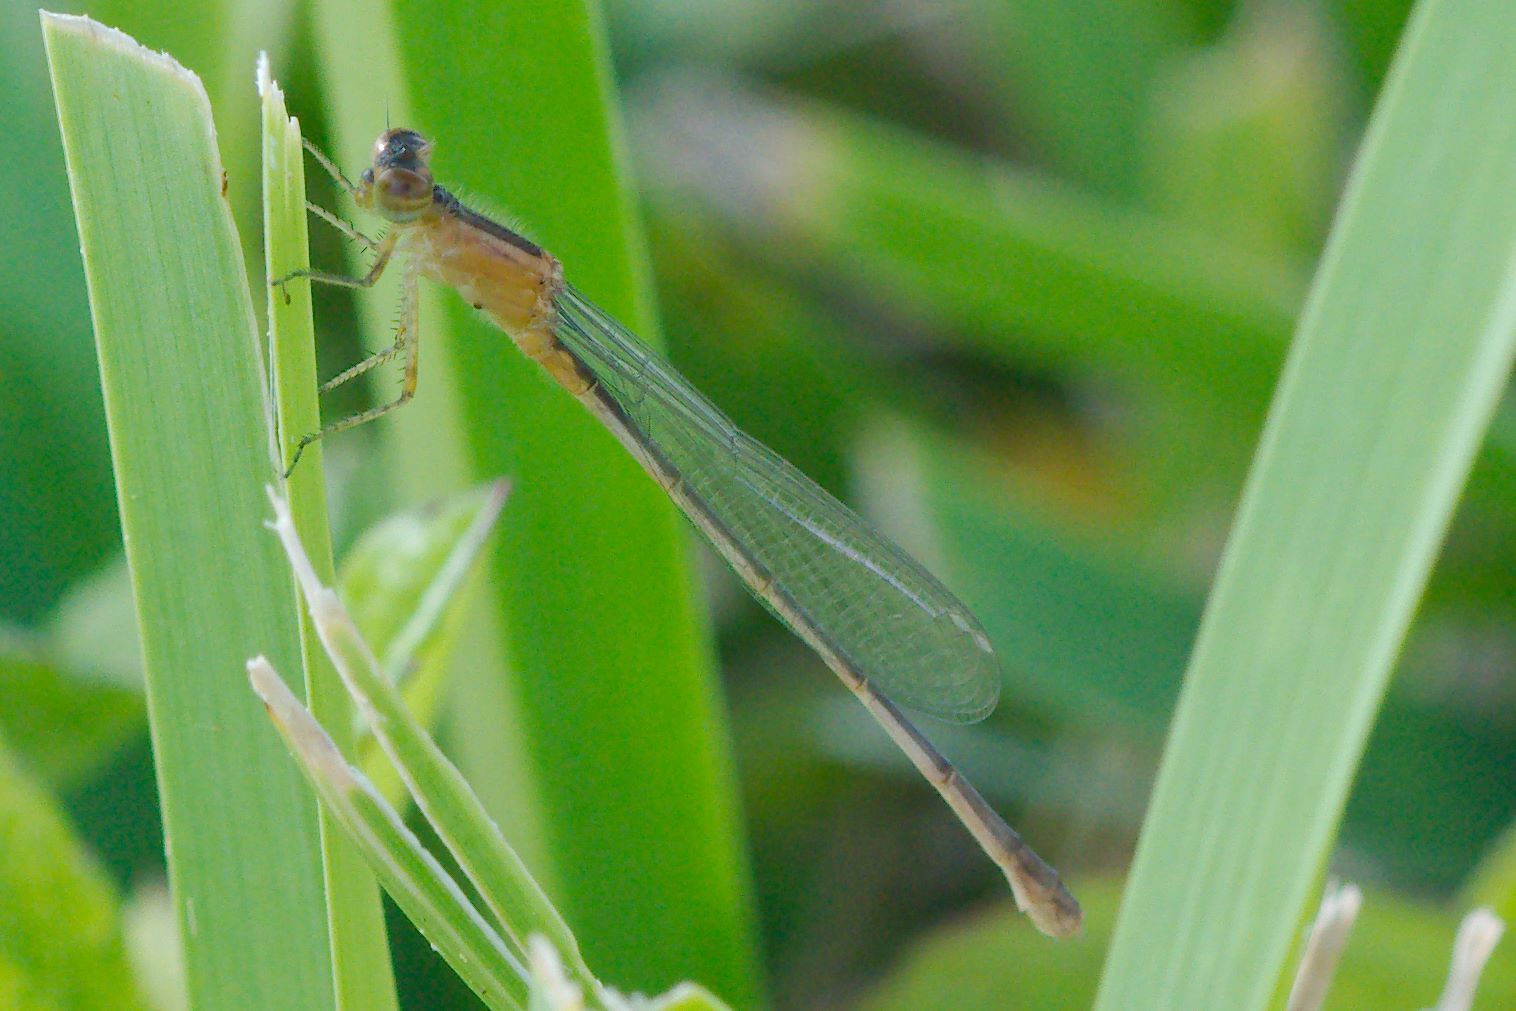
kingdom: Animalia
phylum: Arthropoda
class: Insecta
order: Odonata
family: Coenagrionidae
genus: Ischnura
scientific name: Ischnura ramburii
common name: Rambur's forktail
